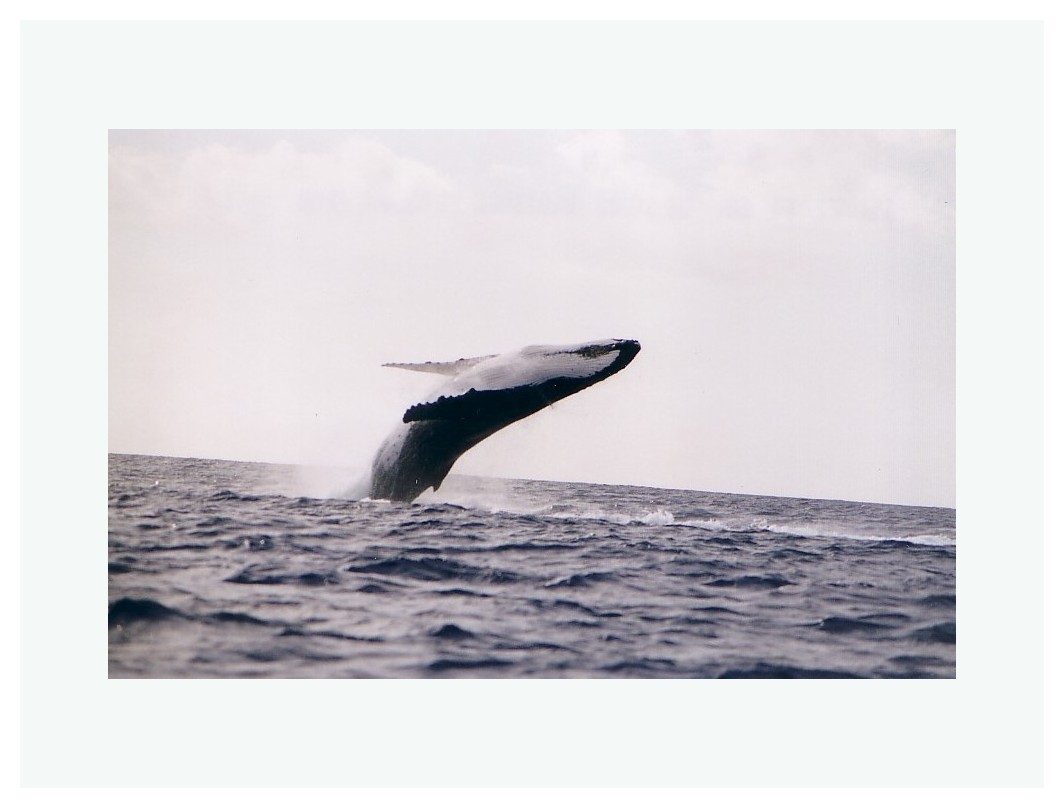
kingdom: Animalia
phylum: Chordata
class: Mammalia
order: Cetacea
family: Balaenopteridae
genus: Megaptera
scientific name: Megaptera novaeangliae
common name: Humpback whale
